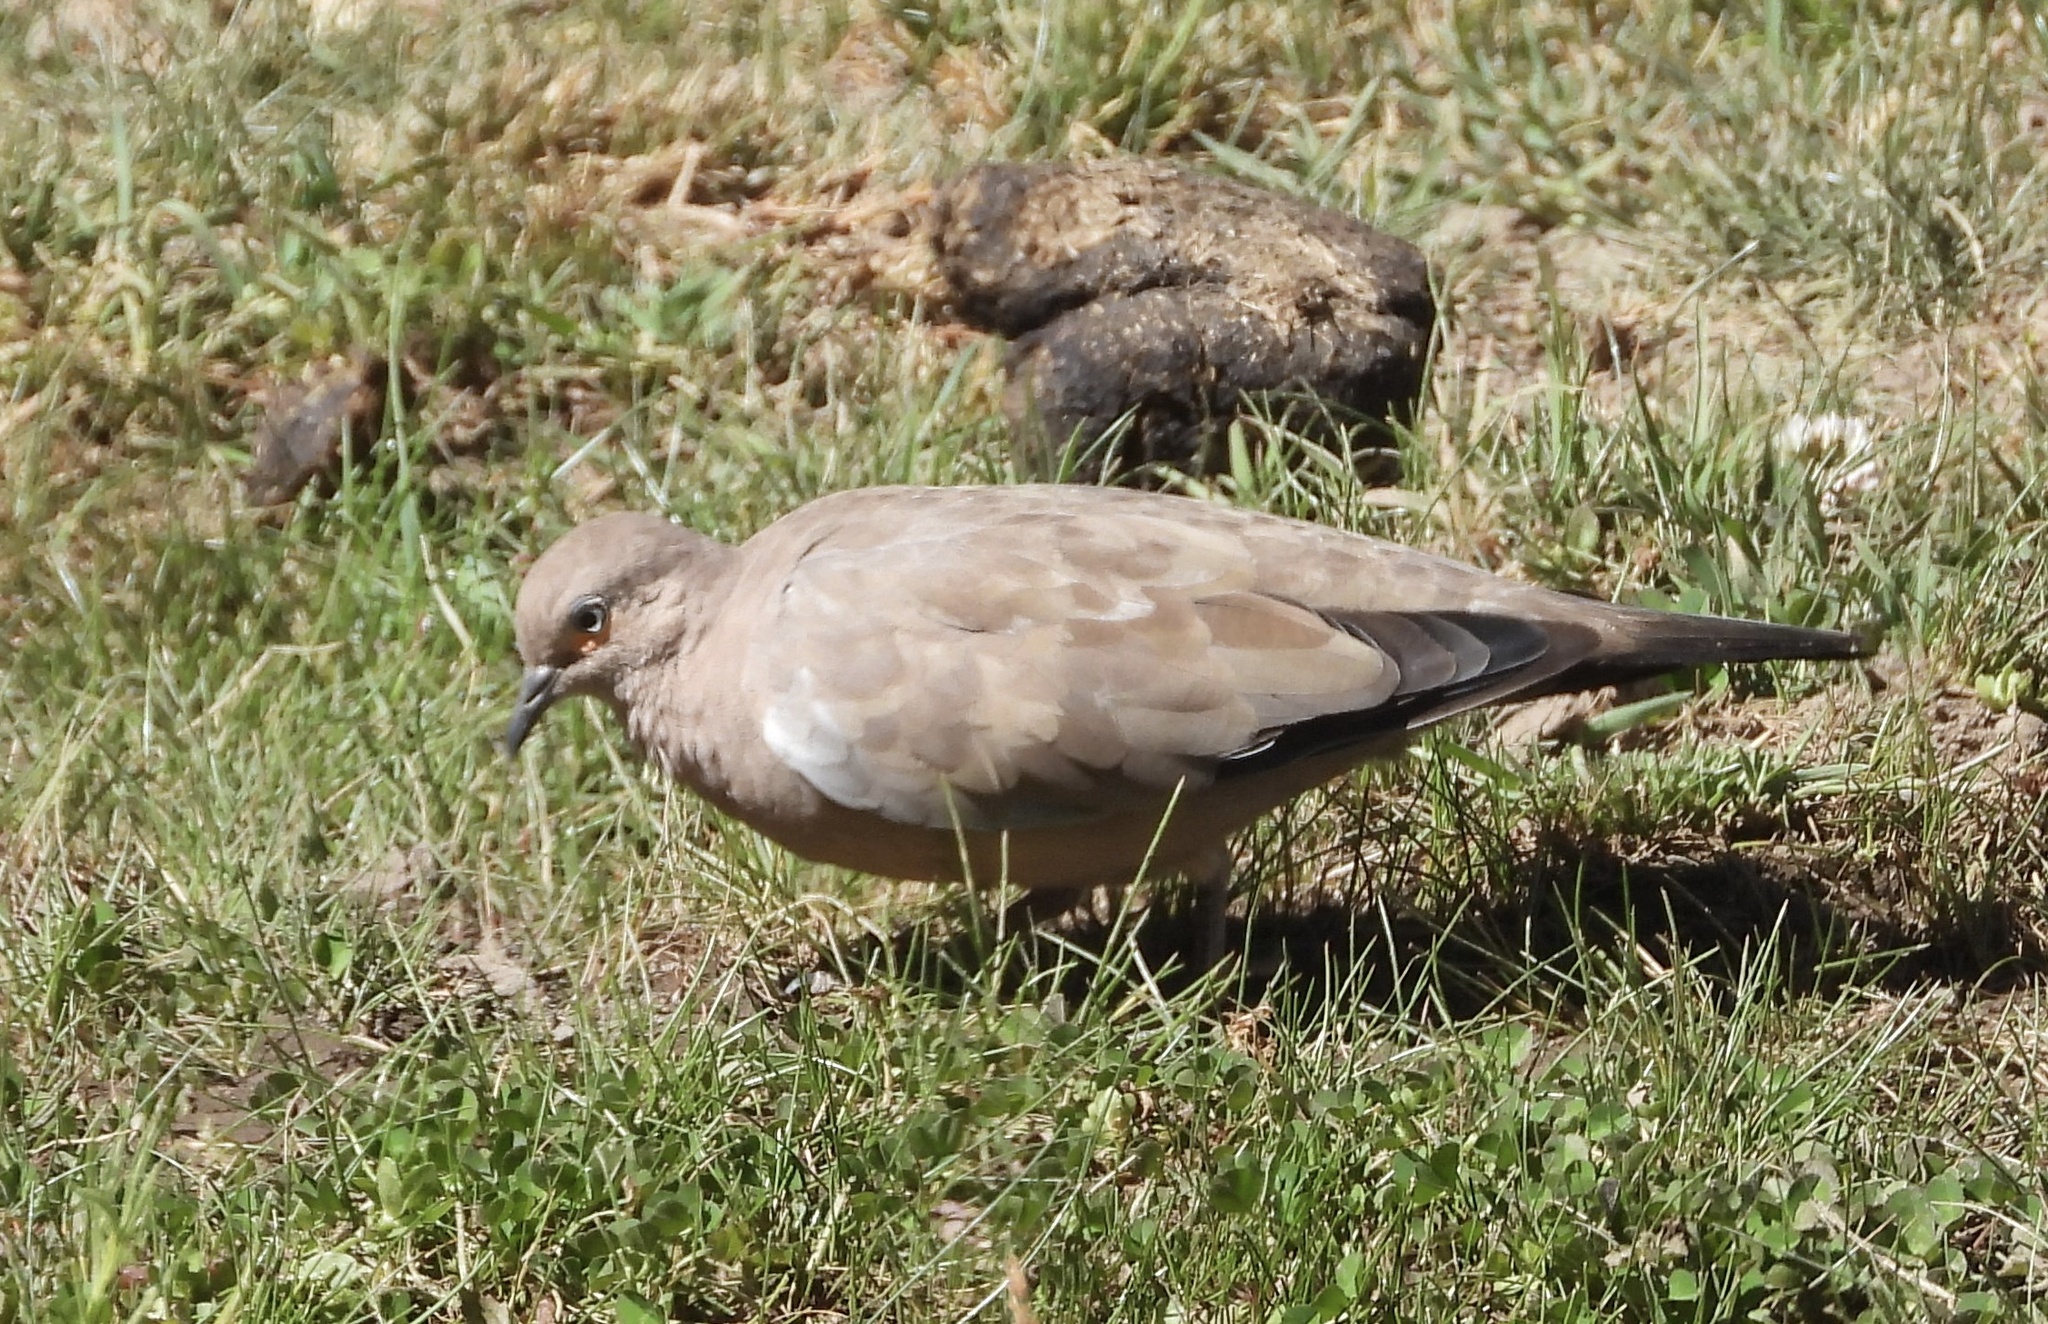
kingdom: Animalia
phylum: Chordata
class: Aves
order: Columbiformes
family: Columbidae
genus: Metriopelia
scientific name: Metriopelia melanoptera
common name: Black-winged ground dove
